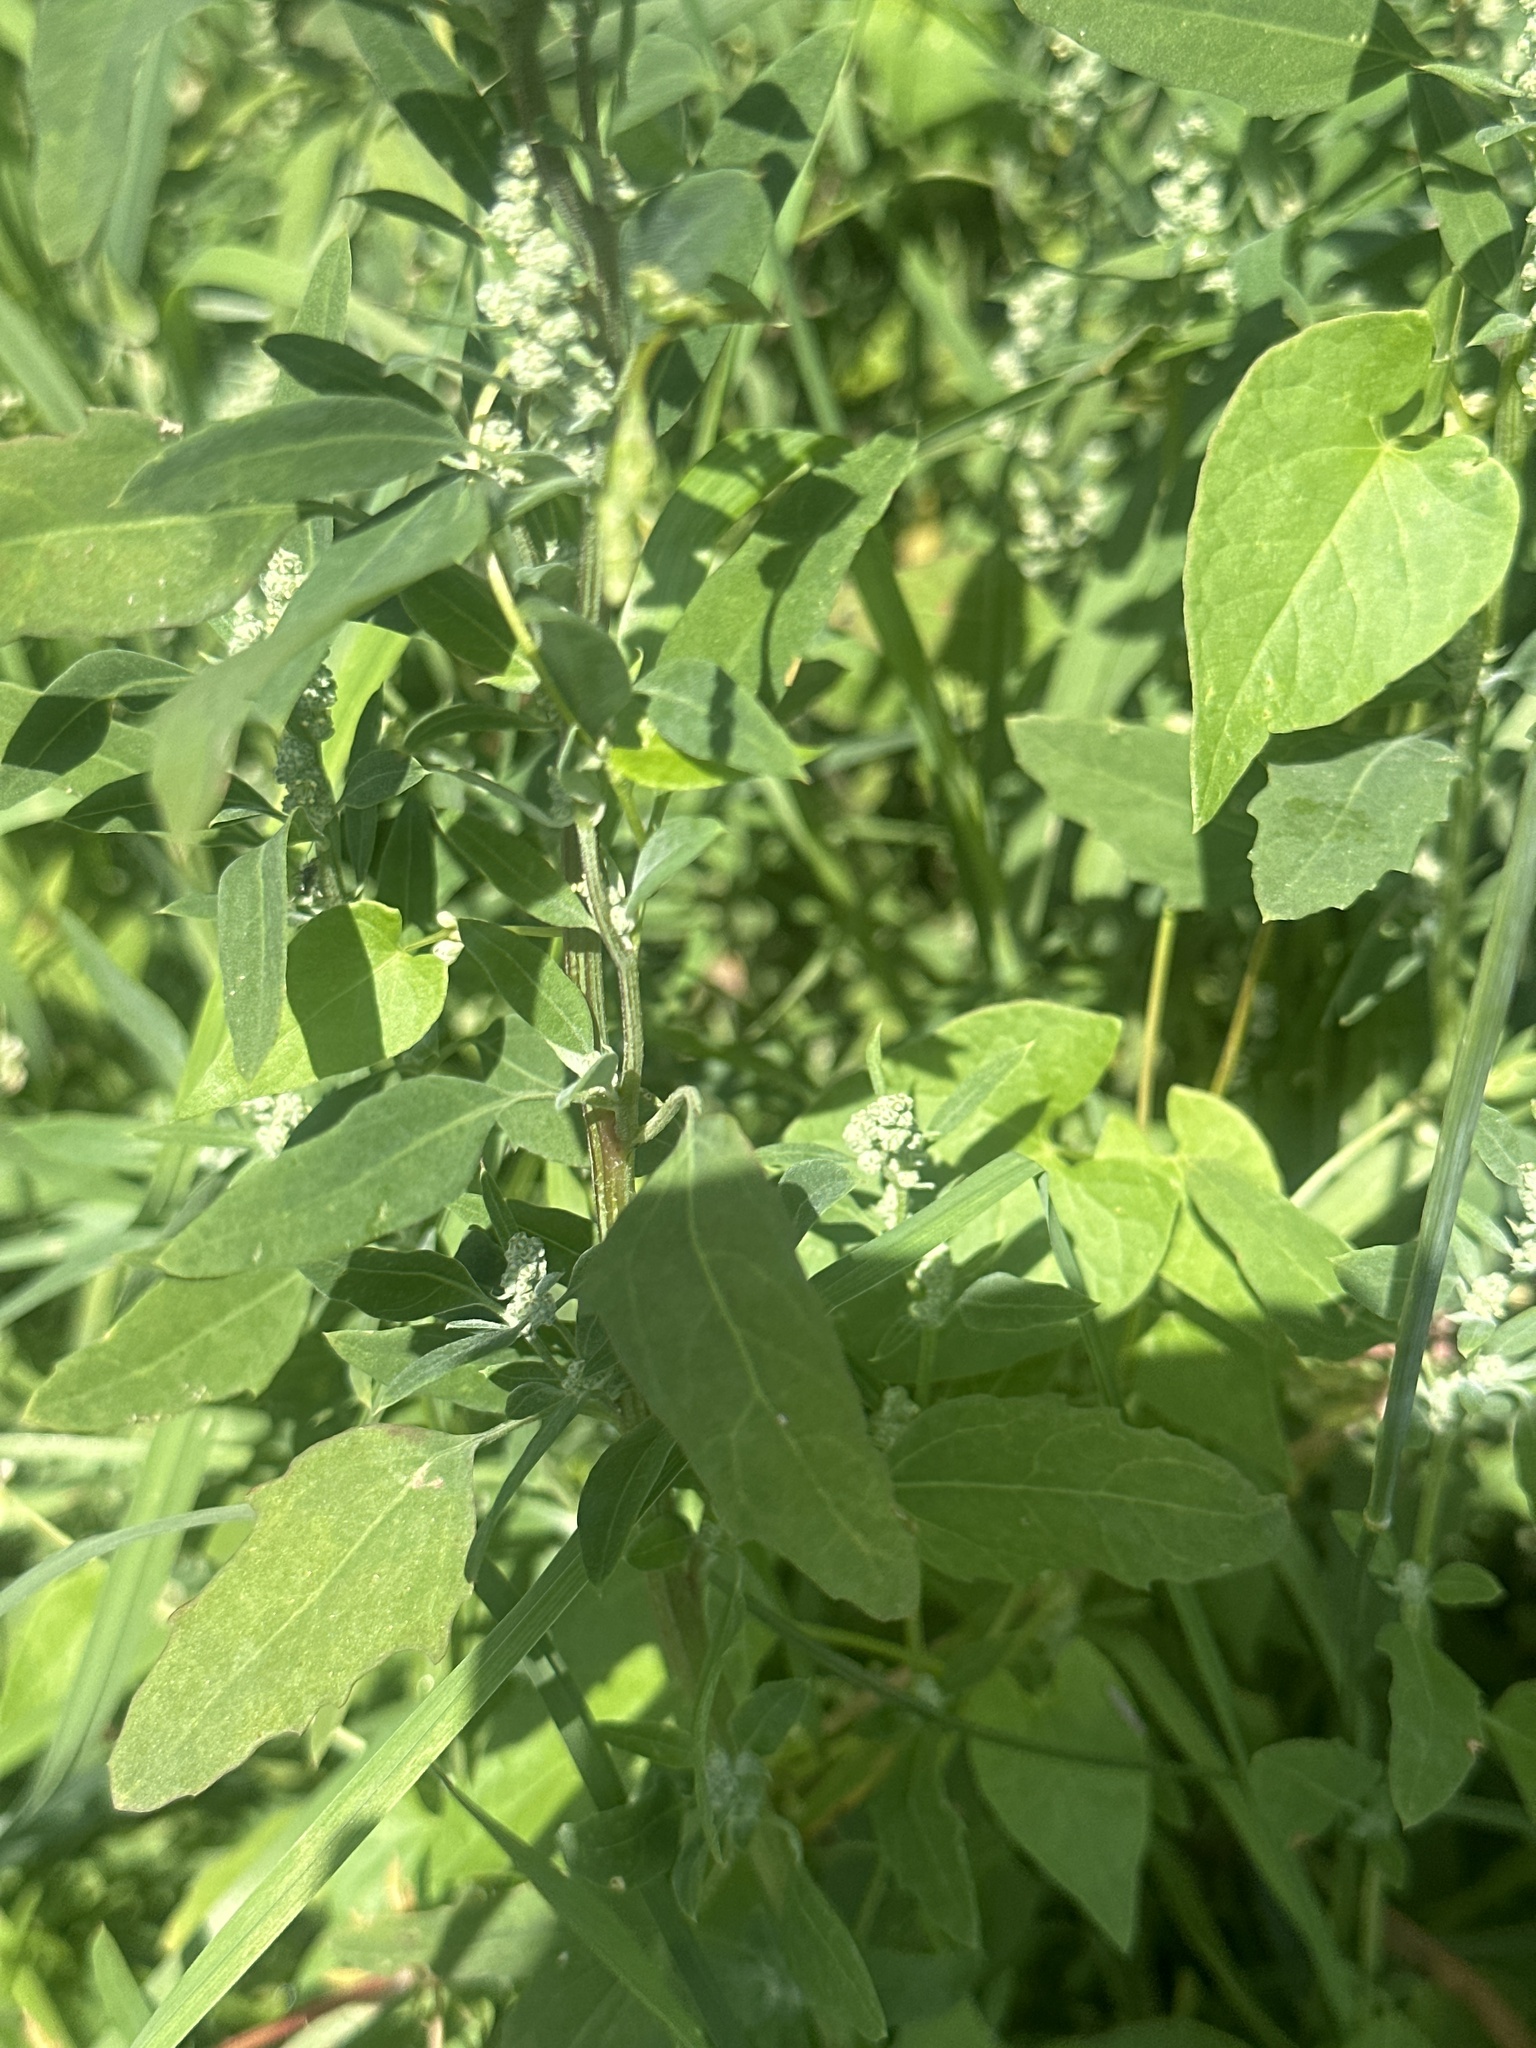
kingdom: Plantae
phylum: Tracheophyta
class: Magnoliopsida
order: Caryophyllales
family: Amaranthaceae
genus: Chenopodium
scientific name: Chenopodium album
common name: Fat-hen
